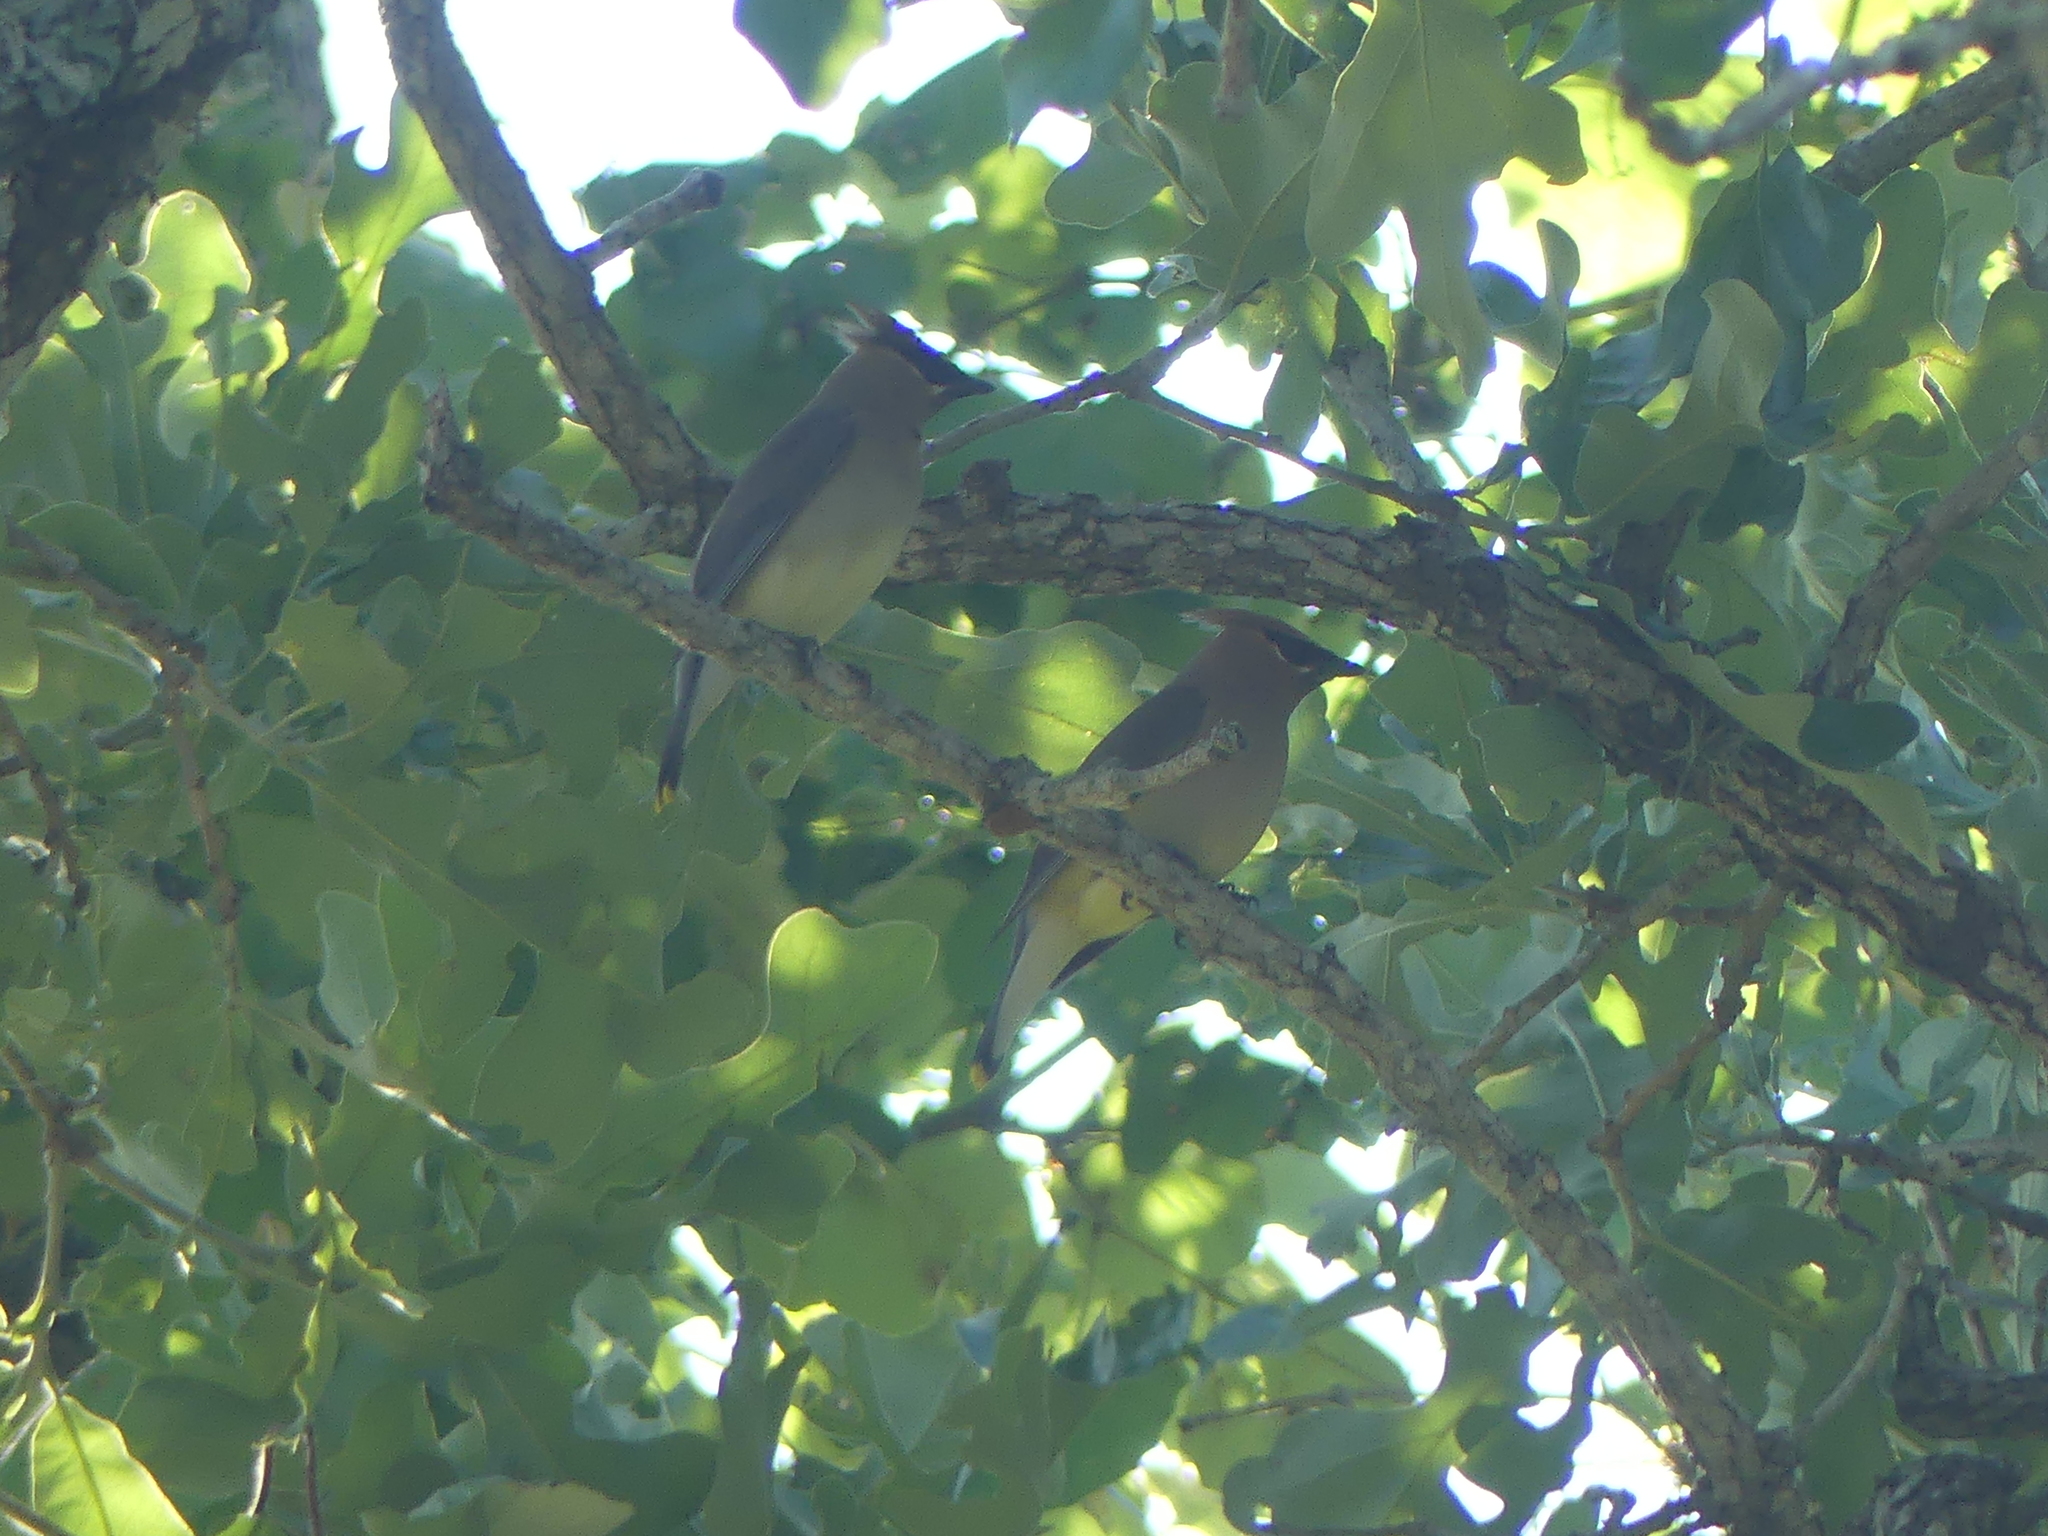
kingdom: Animalia
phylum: Chordata
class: Aves
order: Passeriformes
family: Bombycillidae
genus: Bombycilla
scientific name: Bombycilla cedrorum
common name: Cedar waxwing
